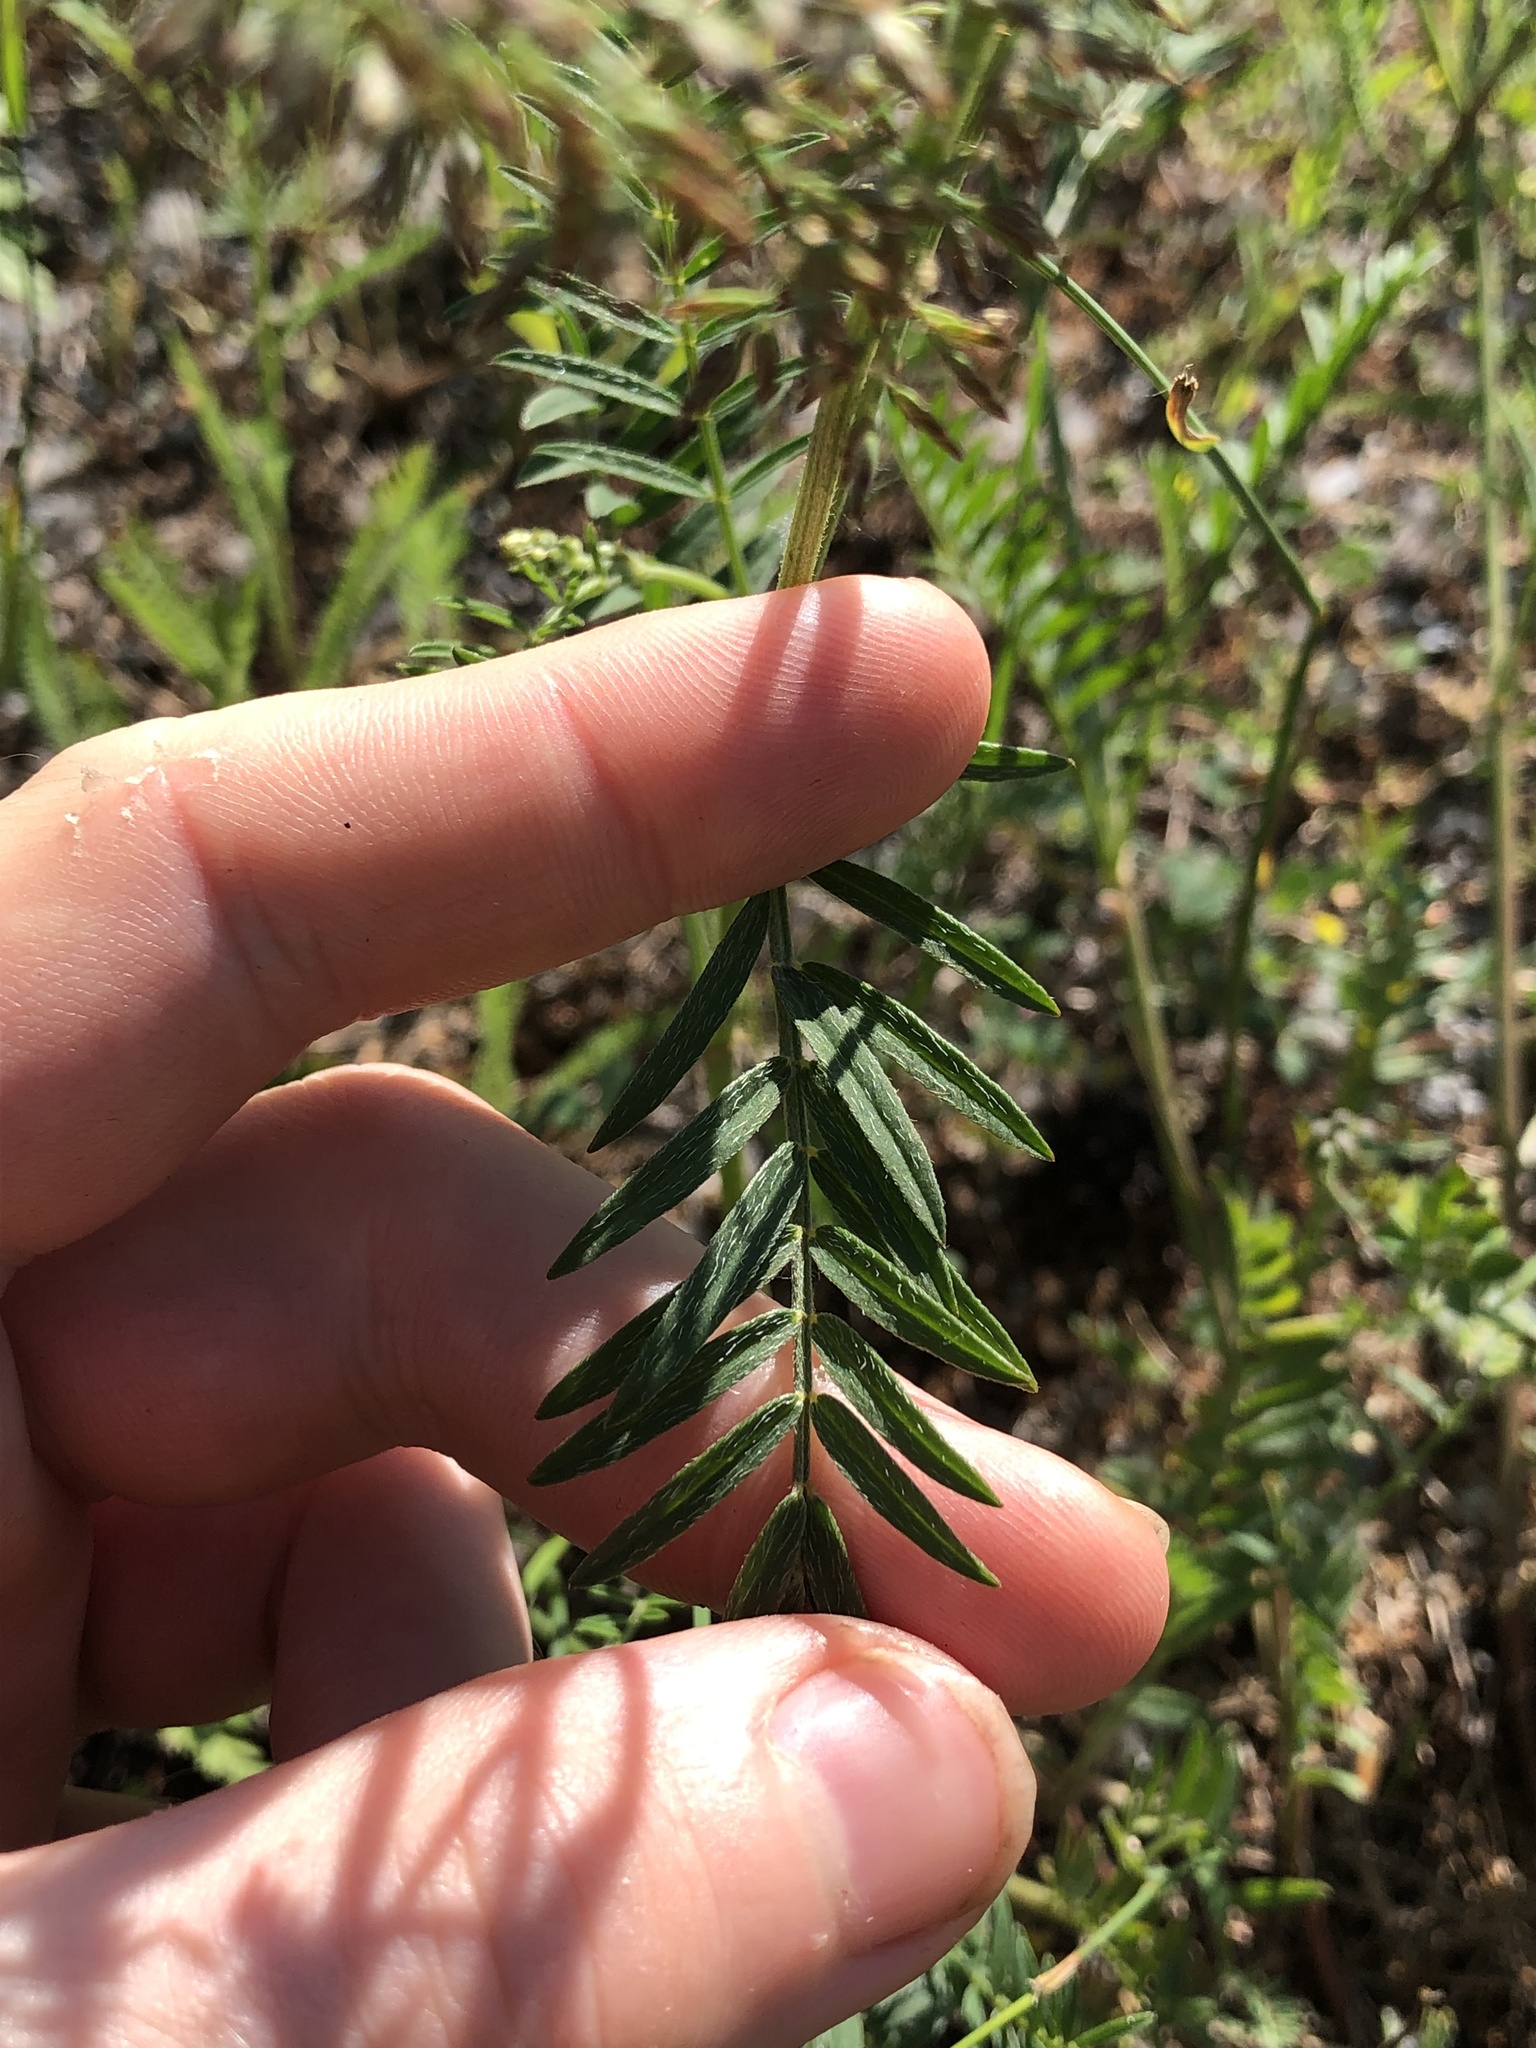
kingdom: Plantae
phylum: Tracheophyta
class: Magnoliopsida
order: Fabales
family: Fabaceae
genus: Astragalus
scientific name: Astragalus onobrychis
